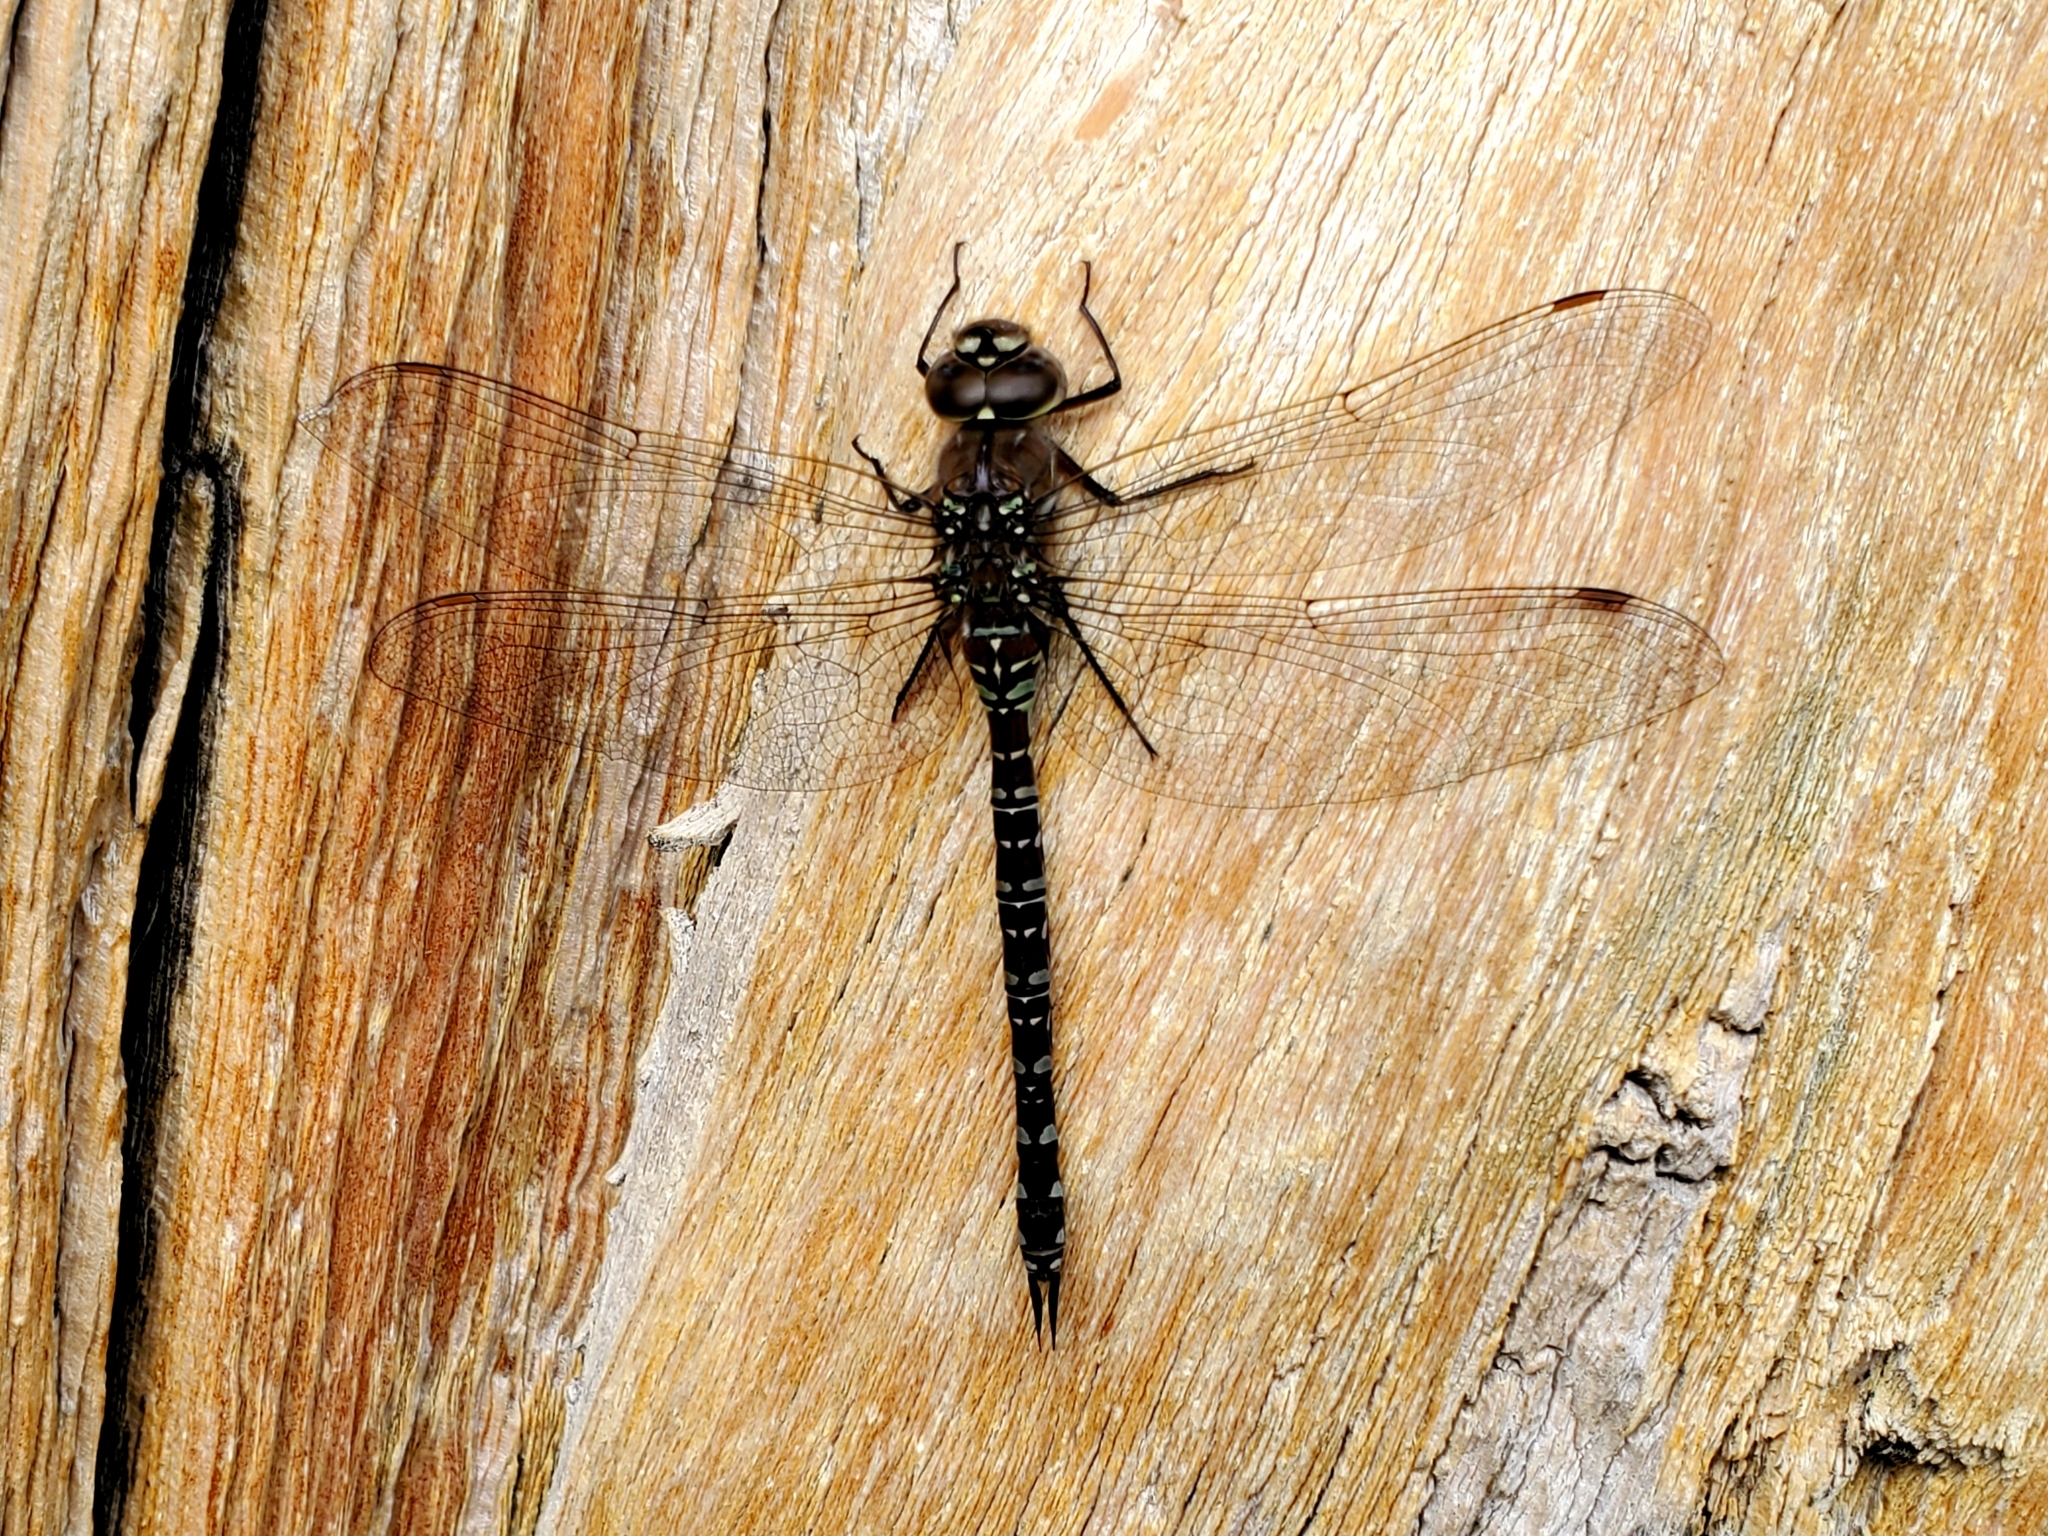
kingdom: Animalia
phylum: Arthropoda
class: Insecta
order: Odonata
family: Aeshnidae
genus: Aeshna
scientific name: Aeshna interrupta
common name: Variable darner
